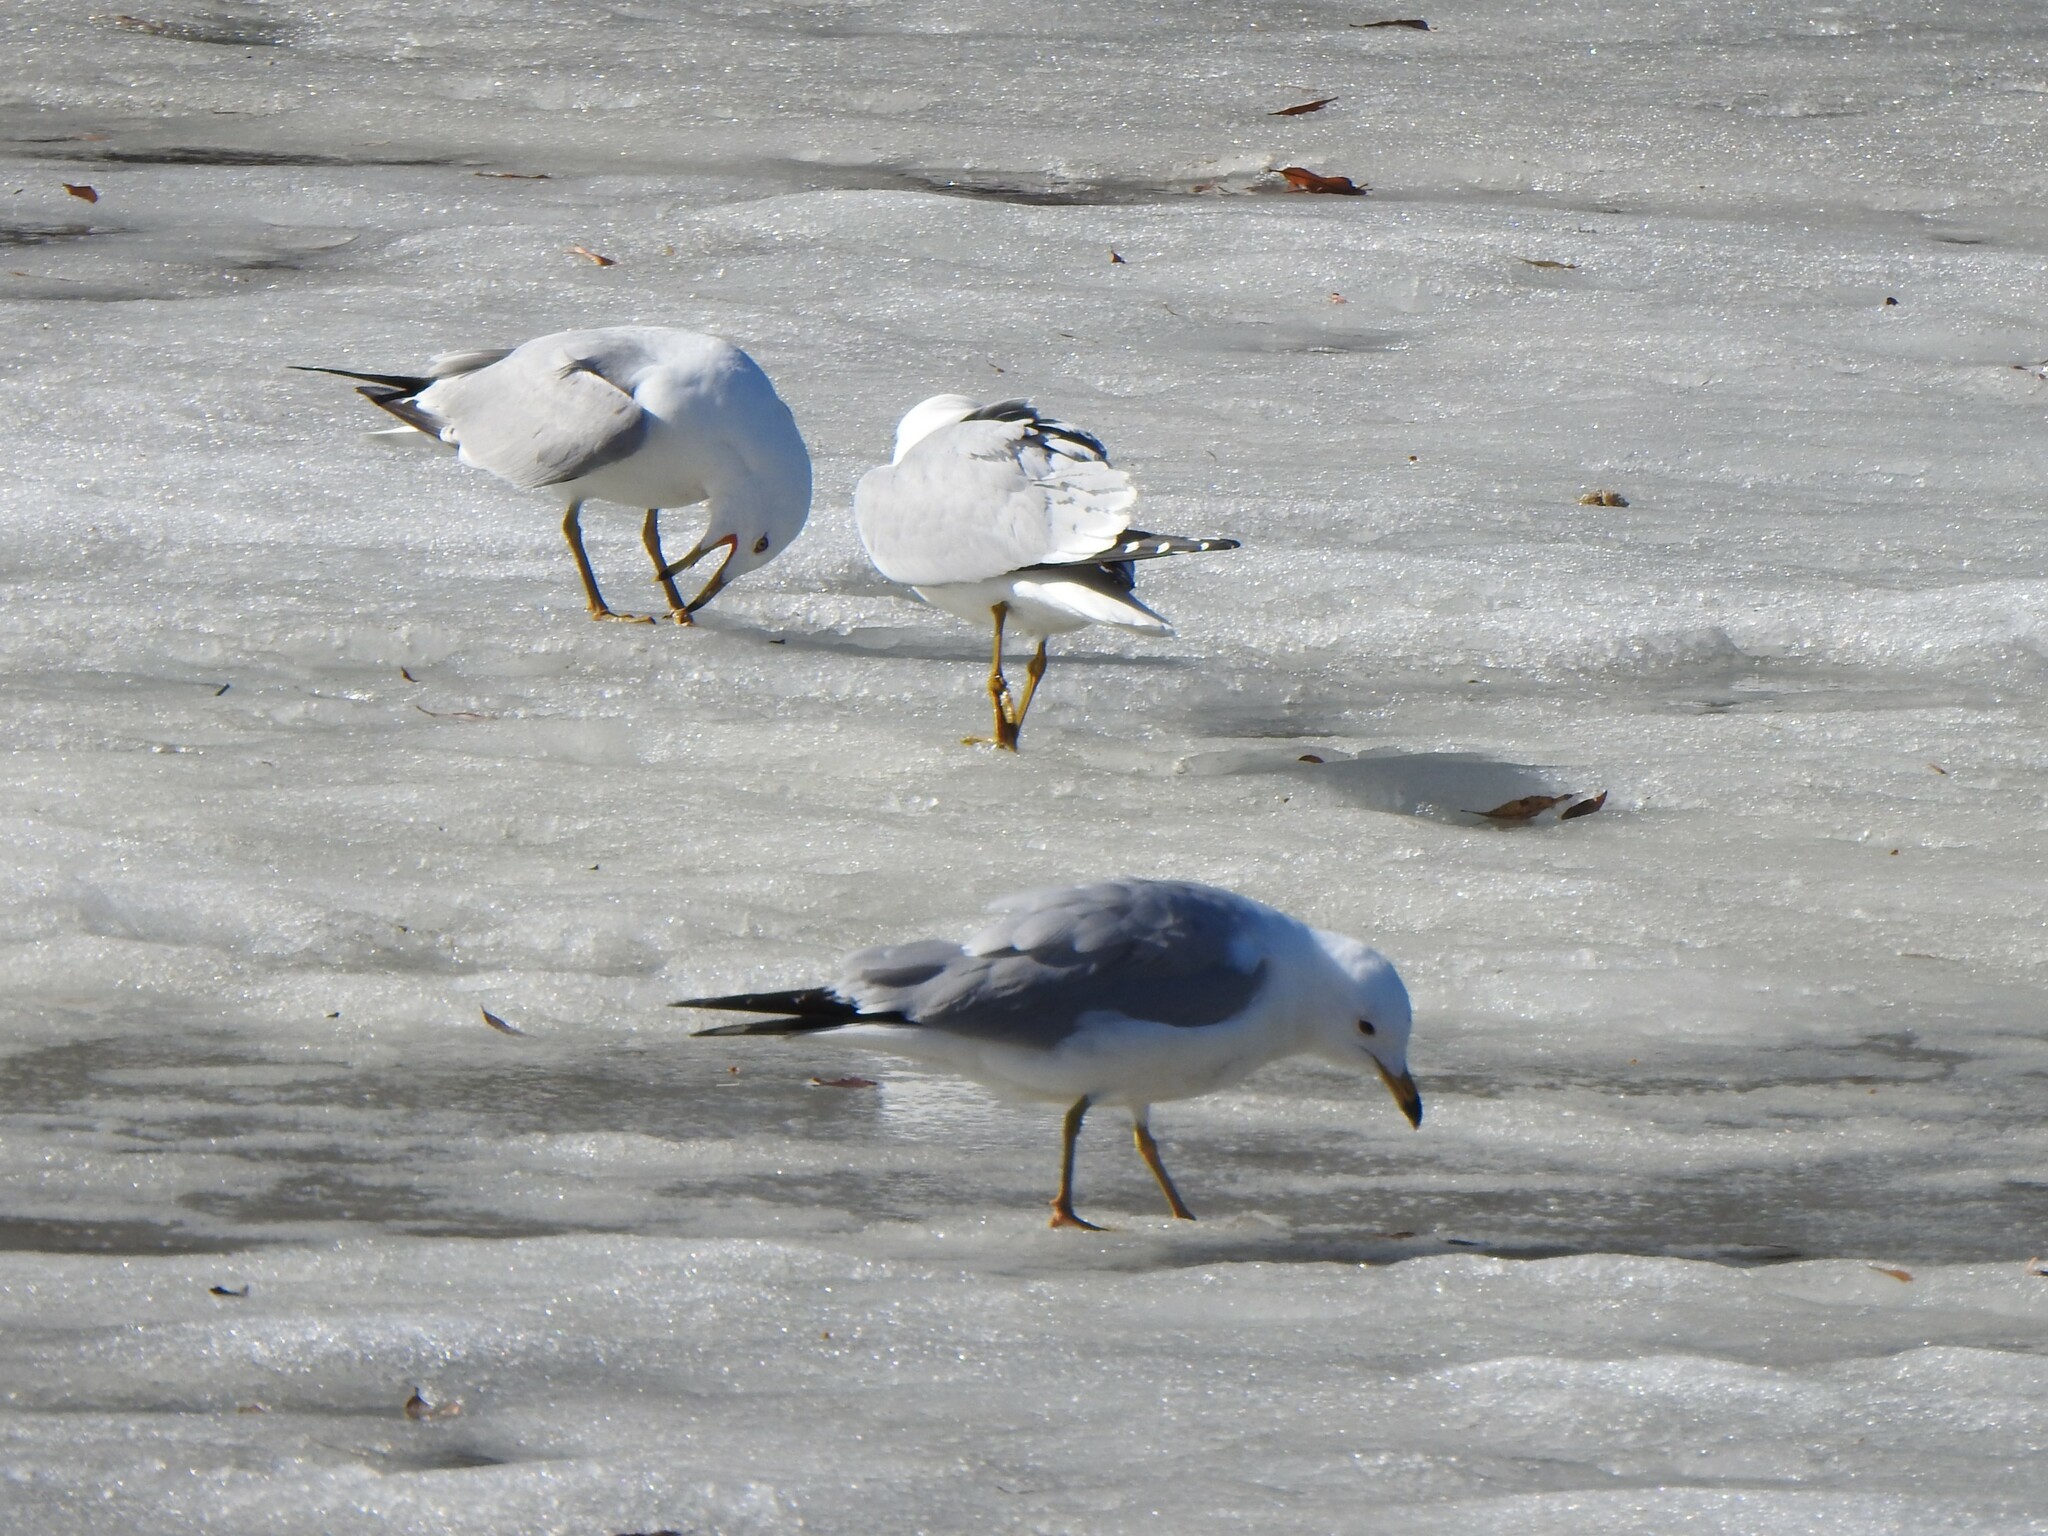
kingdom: Animalia
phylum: Chordata
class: Aves
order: Charadriiformes
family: Laridae
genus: Larus
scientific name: Larus delawarensis
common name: Ring-billed gull
